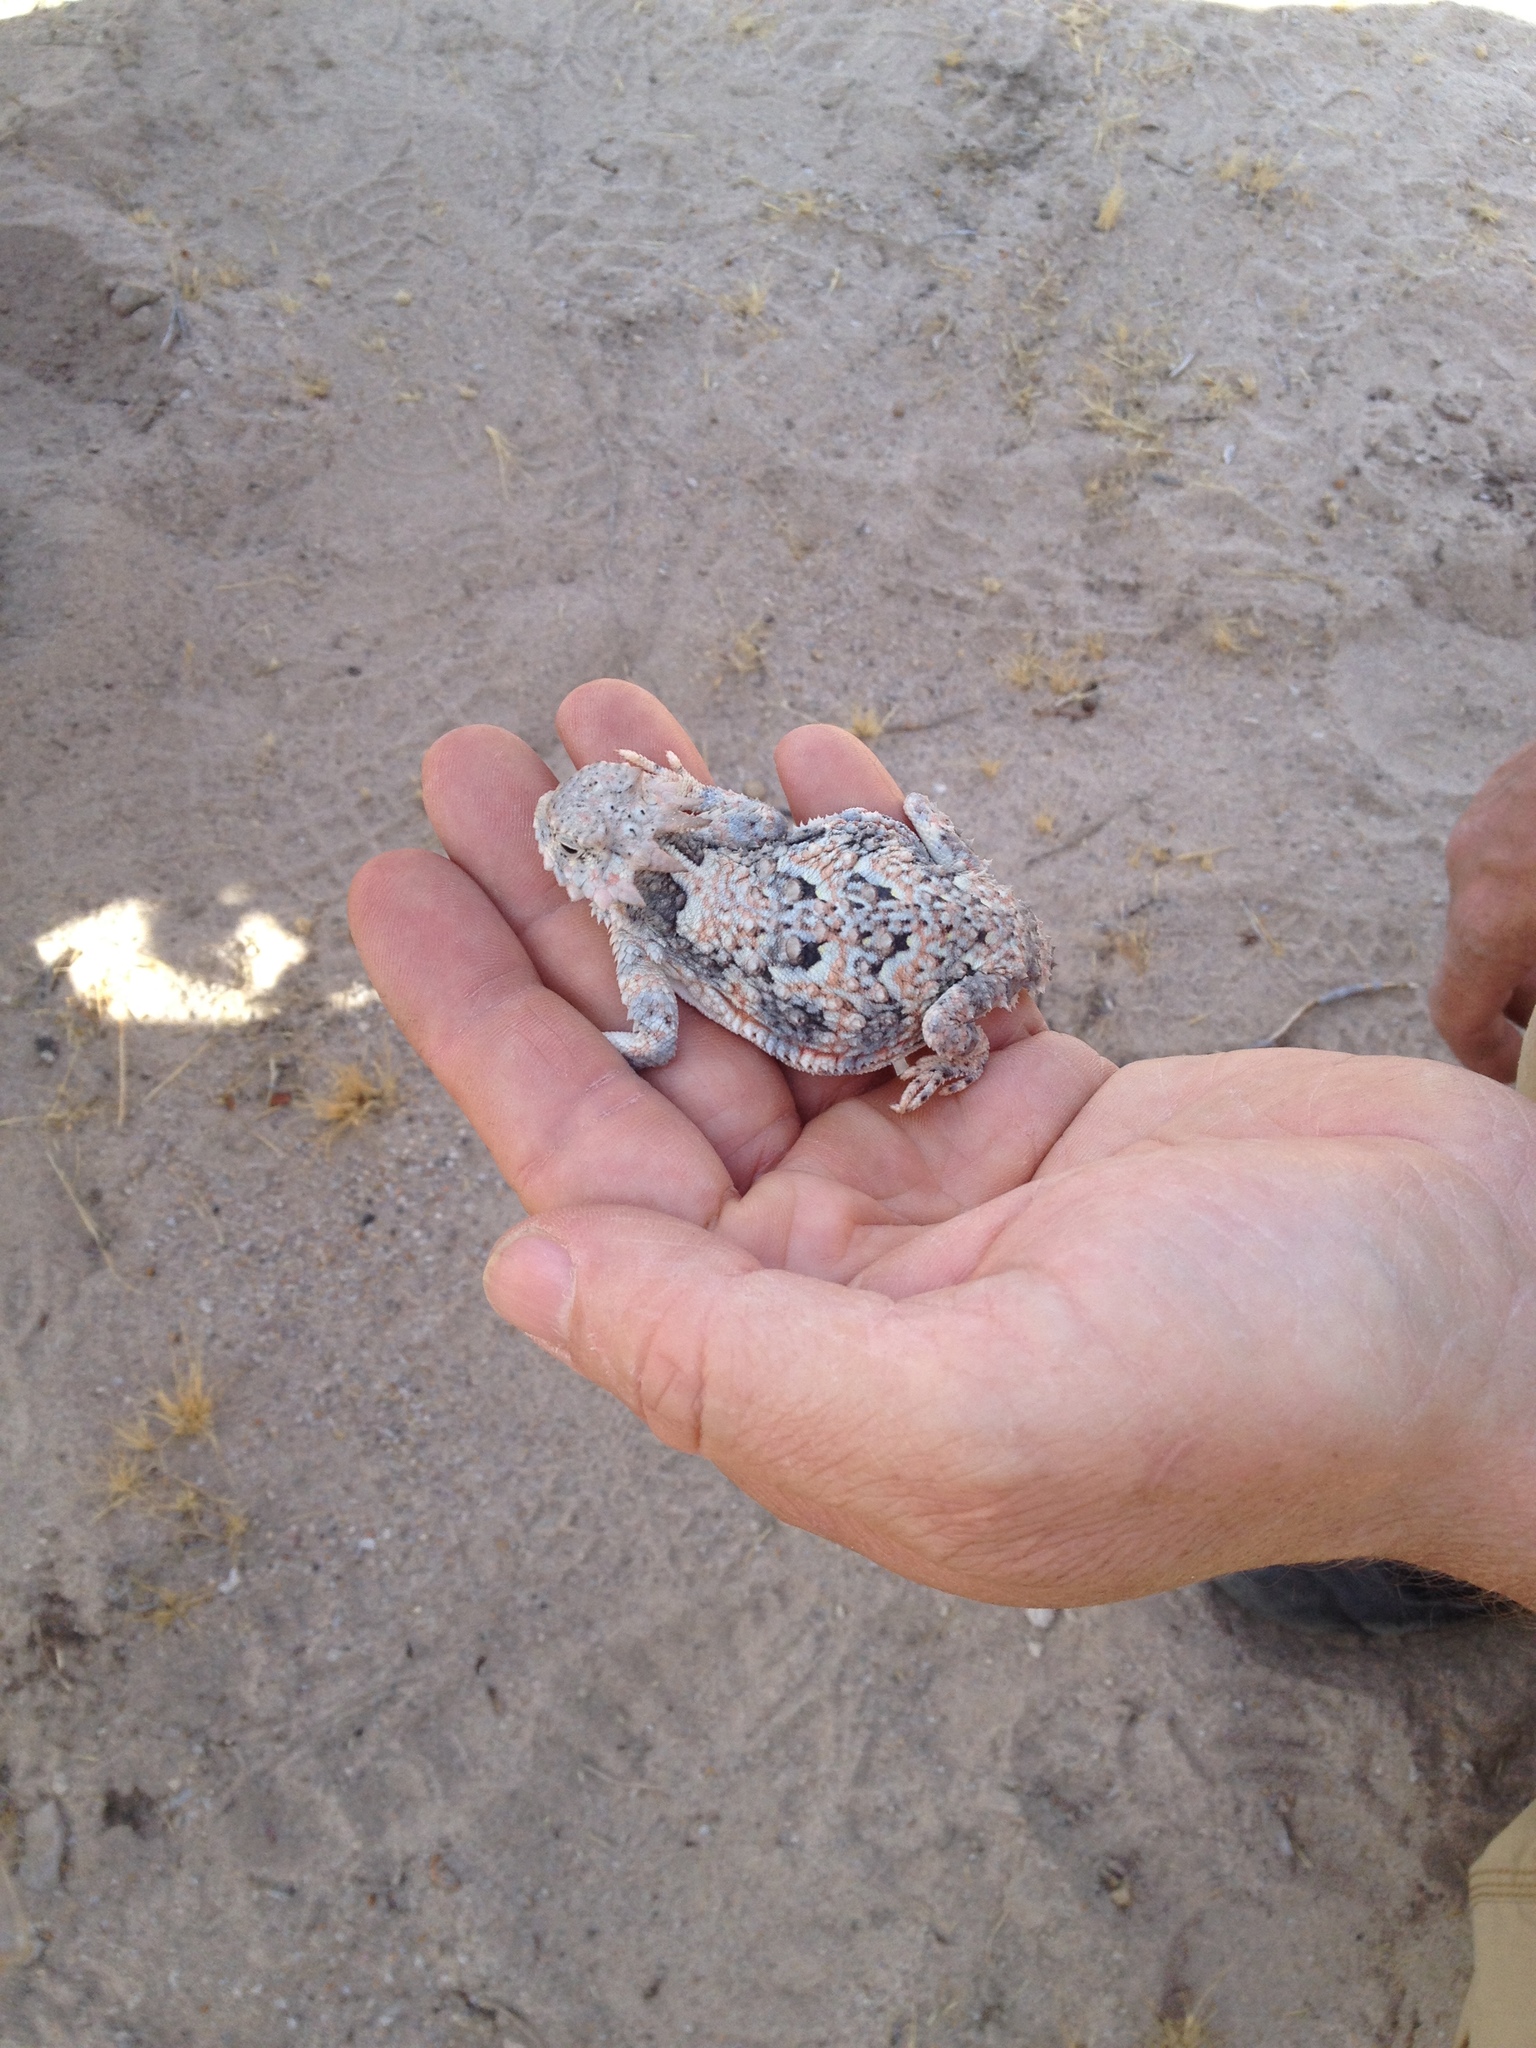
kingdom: Animalia
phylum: Chordata
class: Squamata
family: Phrynosomatidae
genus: Phrynosoma
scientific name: Phrynosoma platyrhinos
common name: Desert horned lizard
